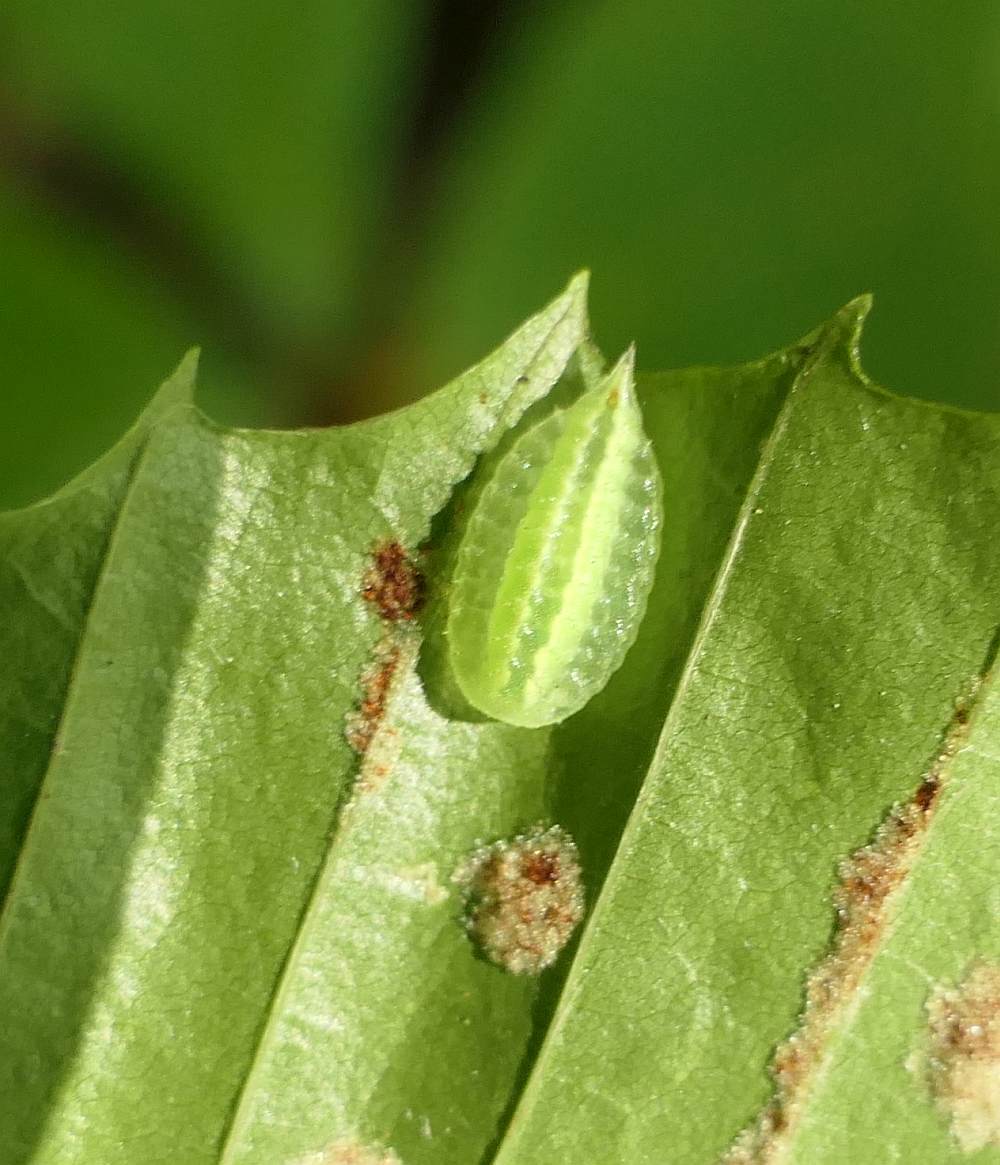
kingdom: Animalia
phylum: Arthropoda
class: Insecta
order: Lepidoptera
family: Limacodidae
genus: Packardia
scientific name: Packardia elegans
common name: Elegant tailed slug moth
